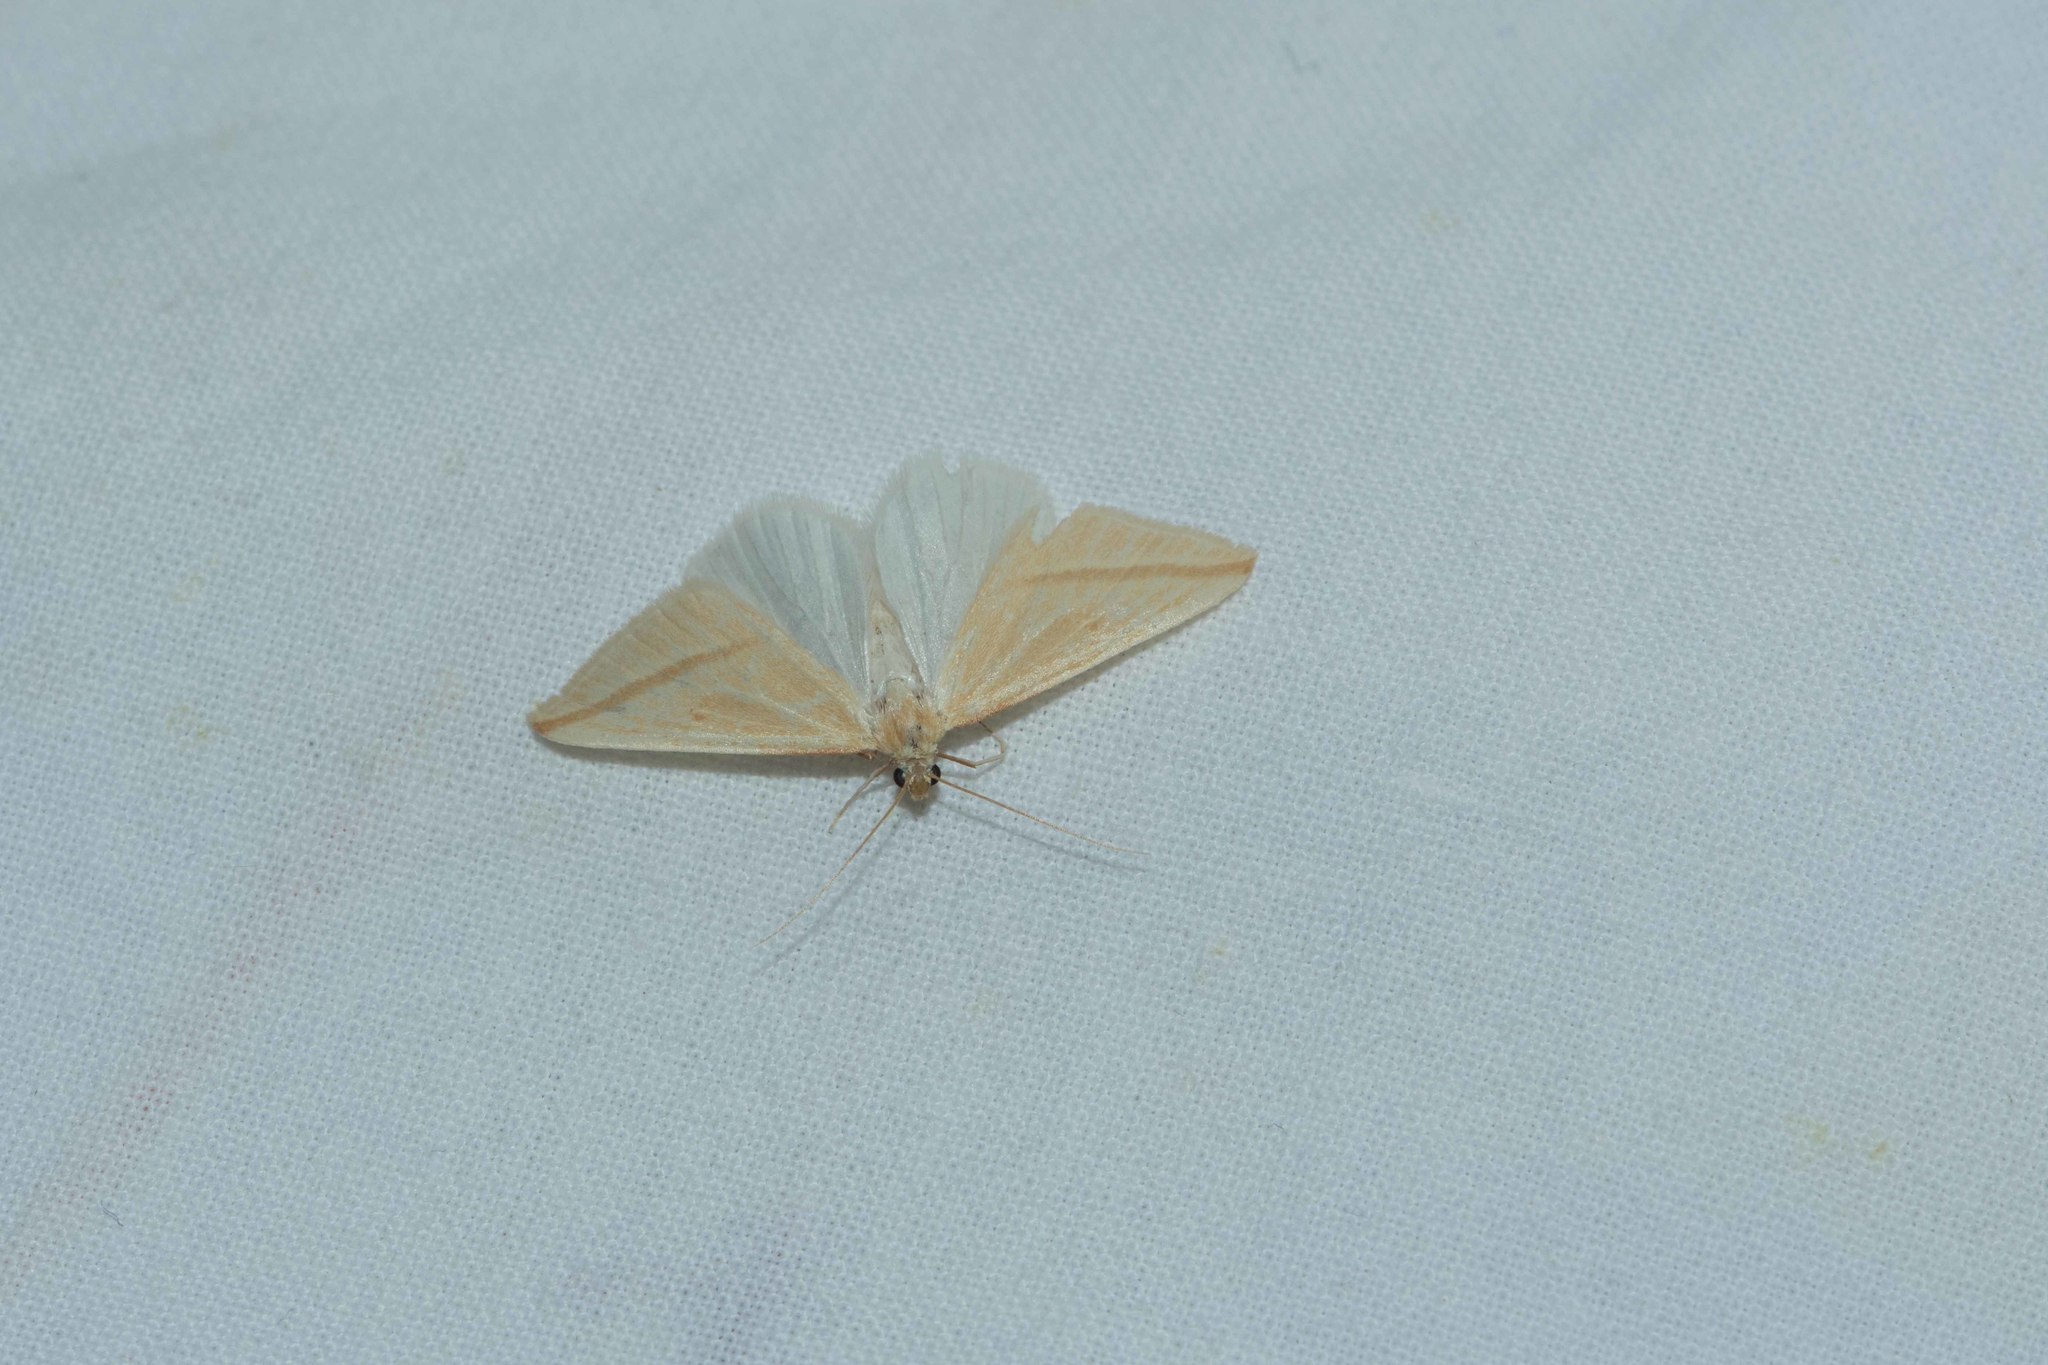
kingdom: Animalia
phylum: Arthropoda
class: Insecta
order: Lepidoptera
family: Geometridae
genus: Rhodometra
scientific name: Rhodometra sacraria
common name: Vestal
